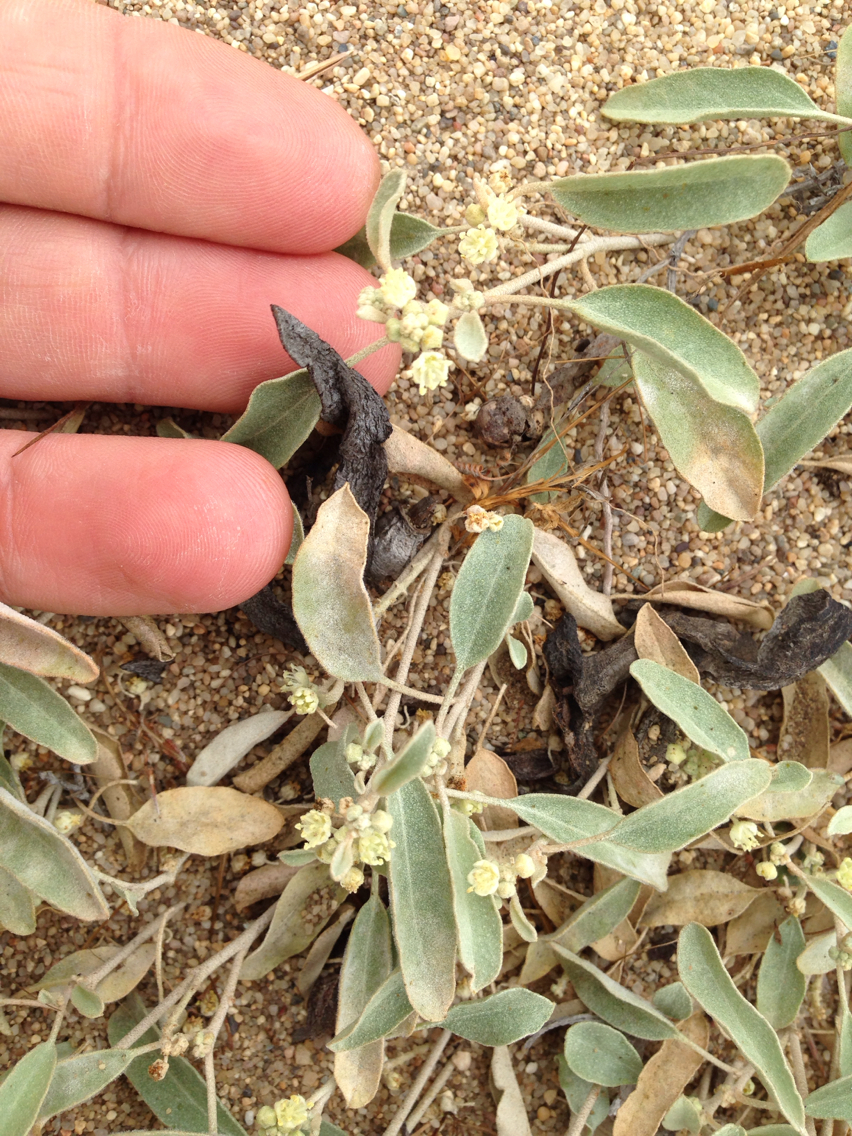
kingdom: Plantae
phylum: Tracheophyta
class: Magnoliopsida
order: Malpighiales
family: Euphorbiaceae
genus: Croton
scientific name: Croton californicus
